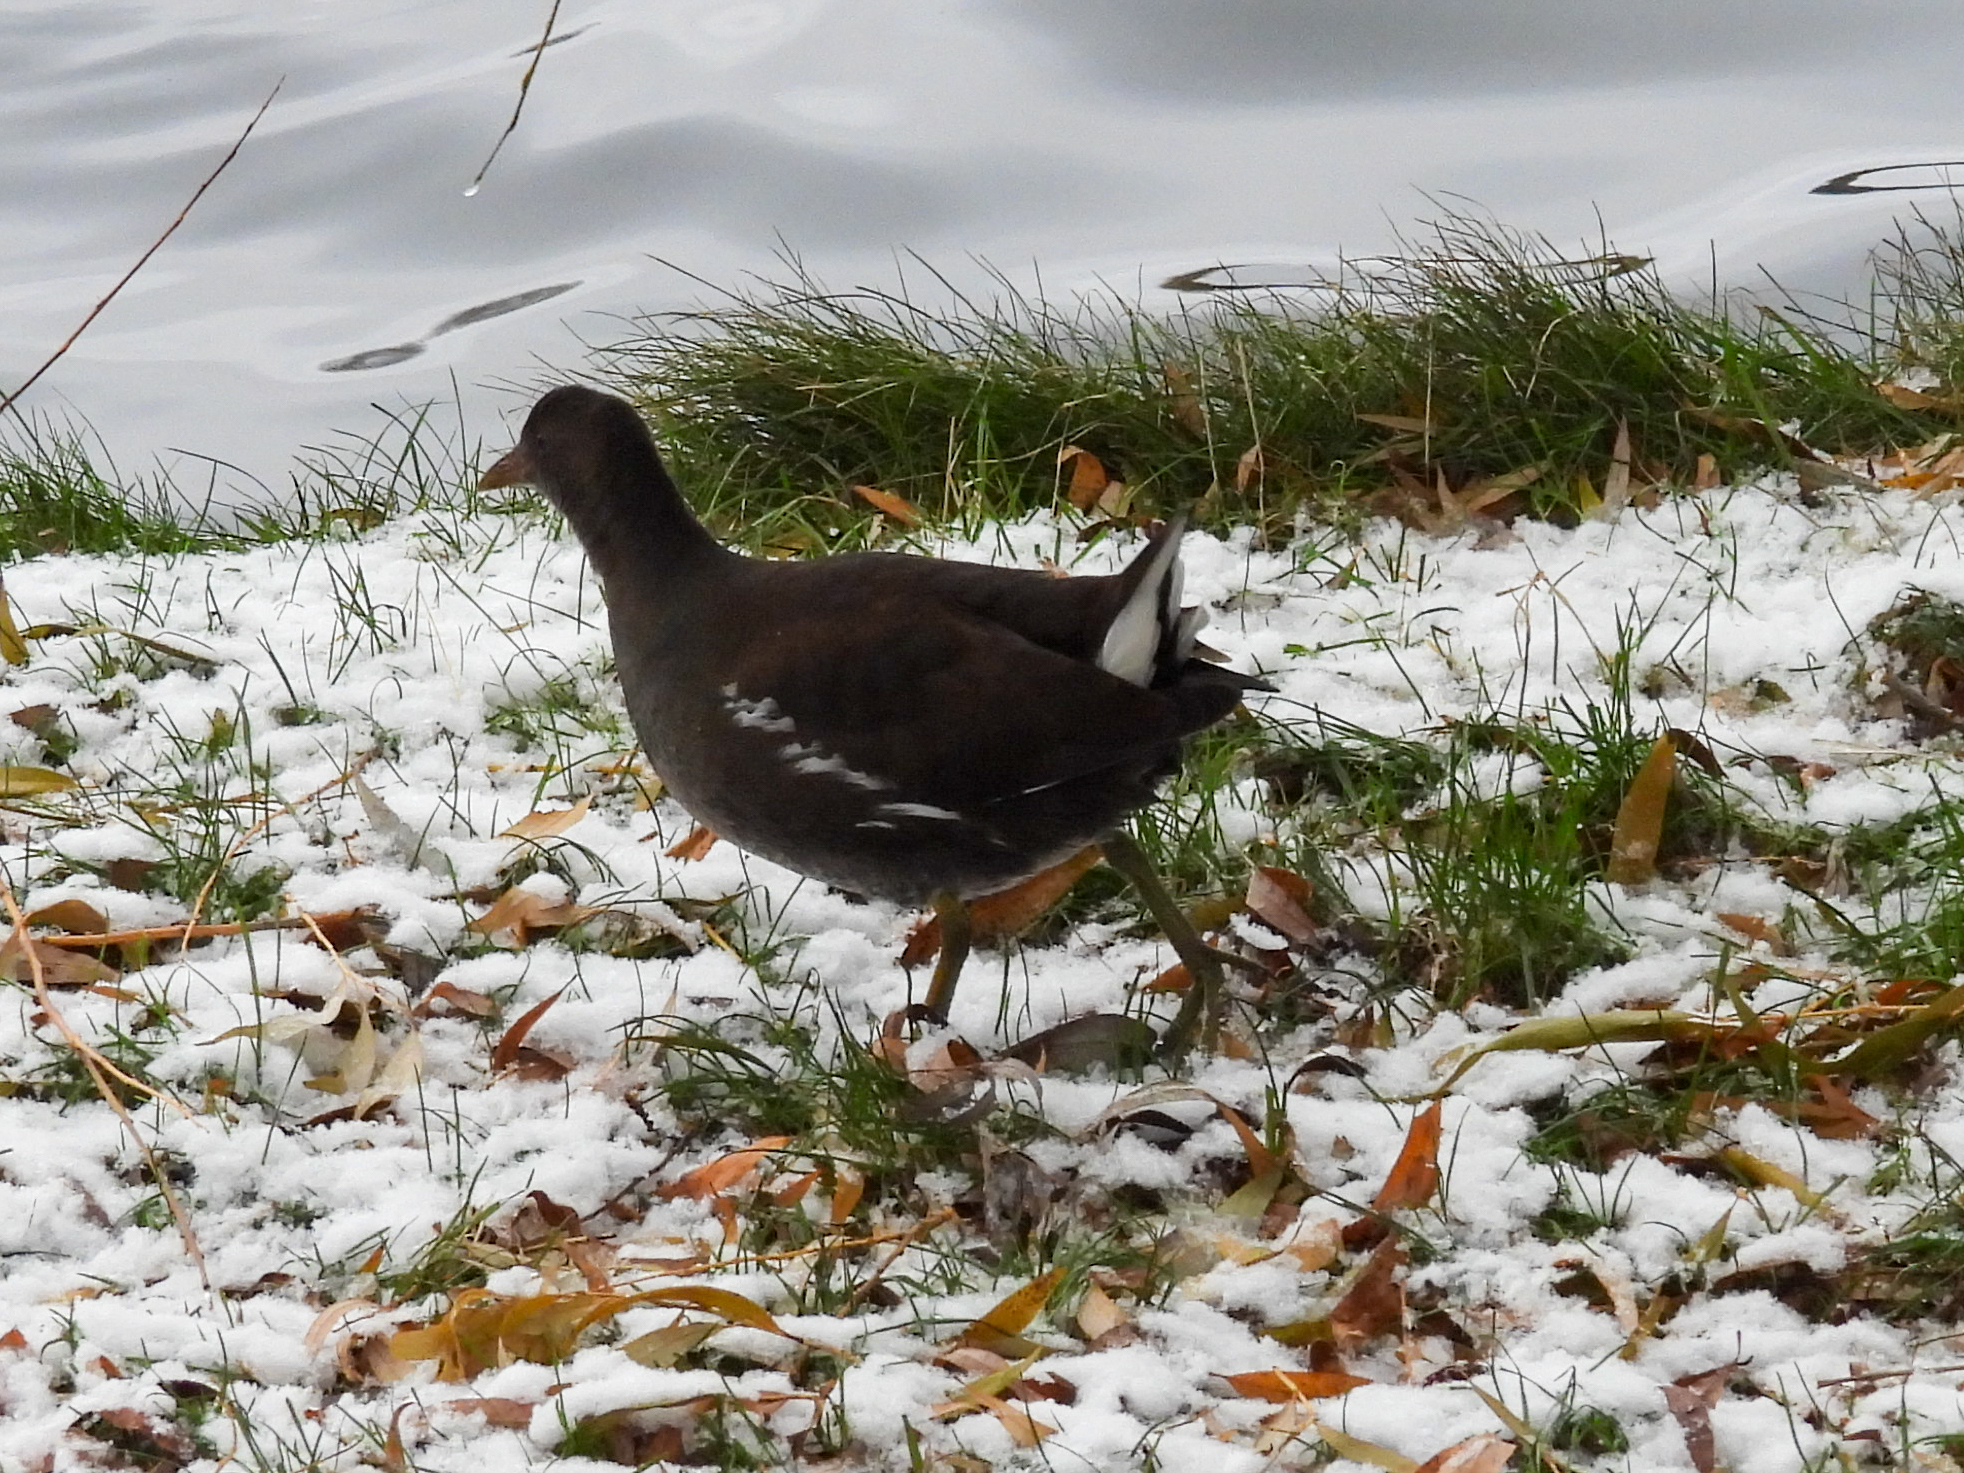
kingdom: Animalia
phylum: Chordata
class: Aves
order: Gruiformes
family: Rallidae
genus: Gallinula
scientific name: Gallinula chloropus
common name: Common moorhen
